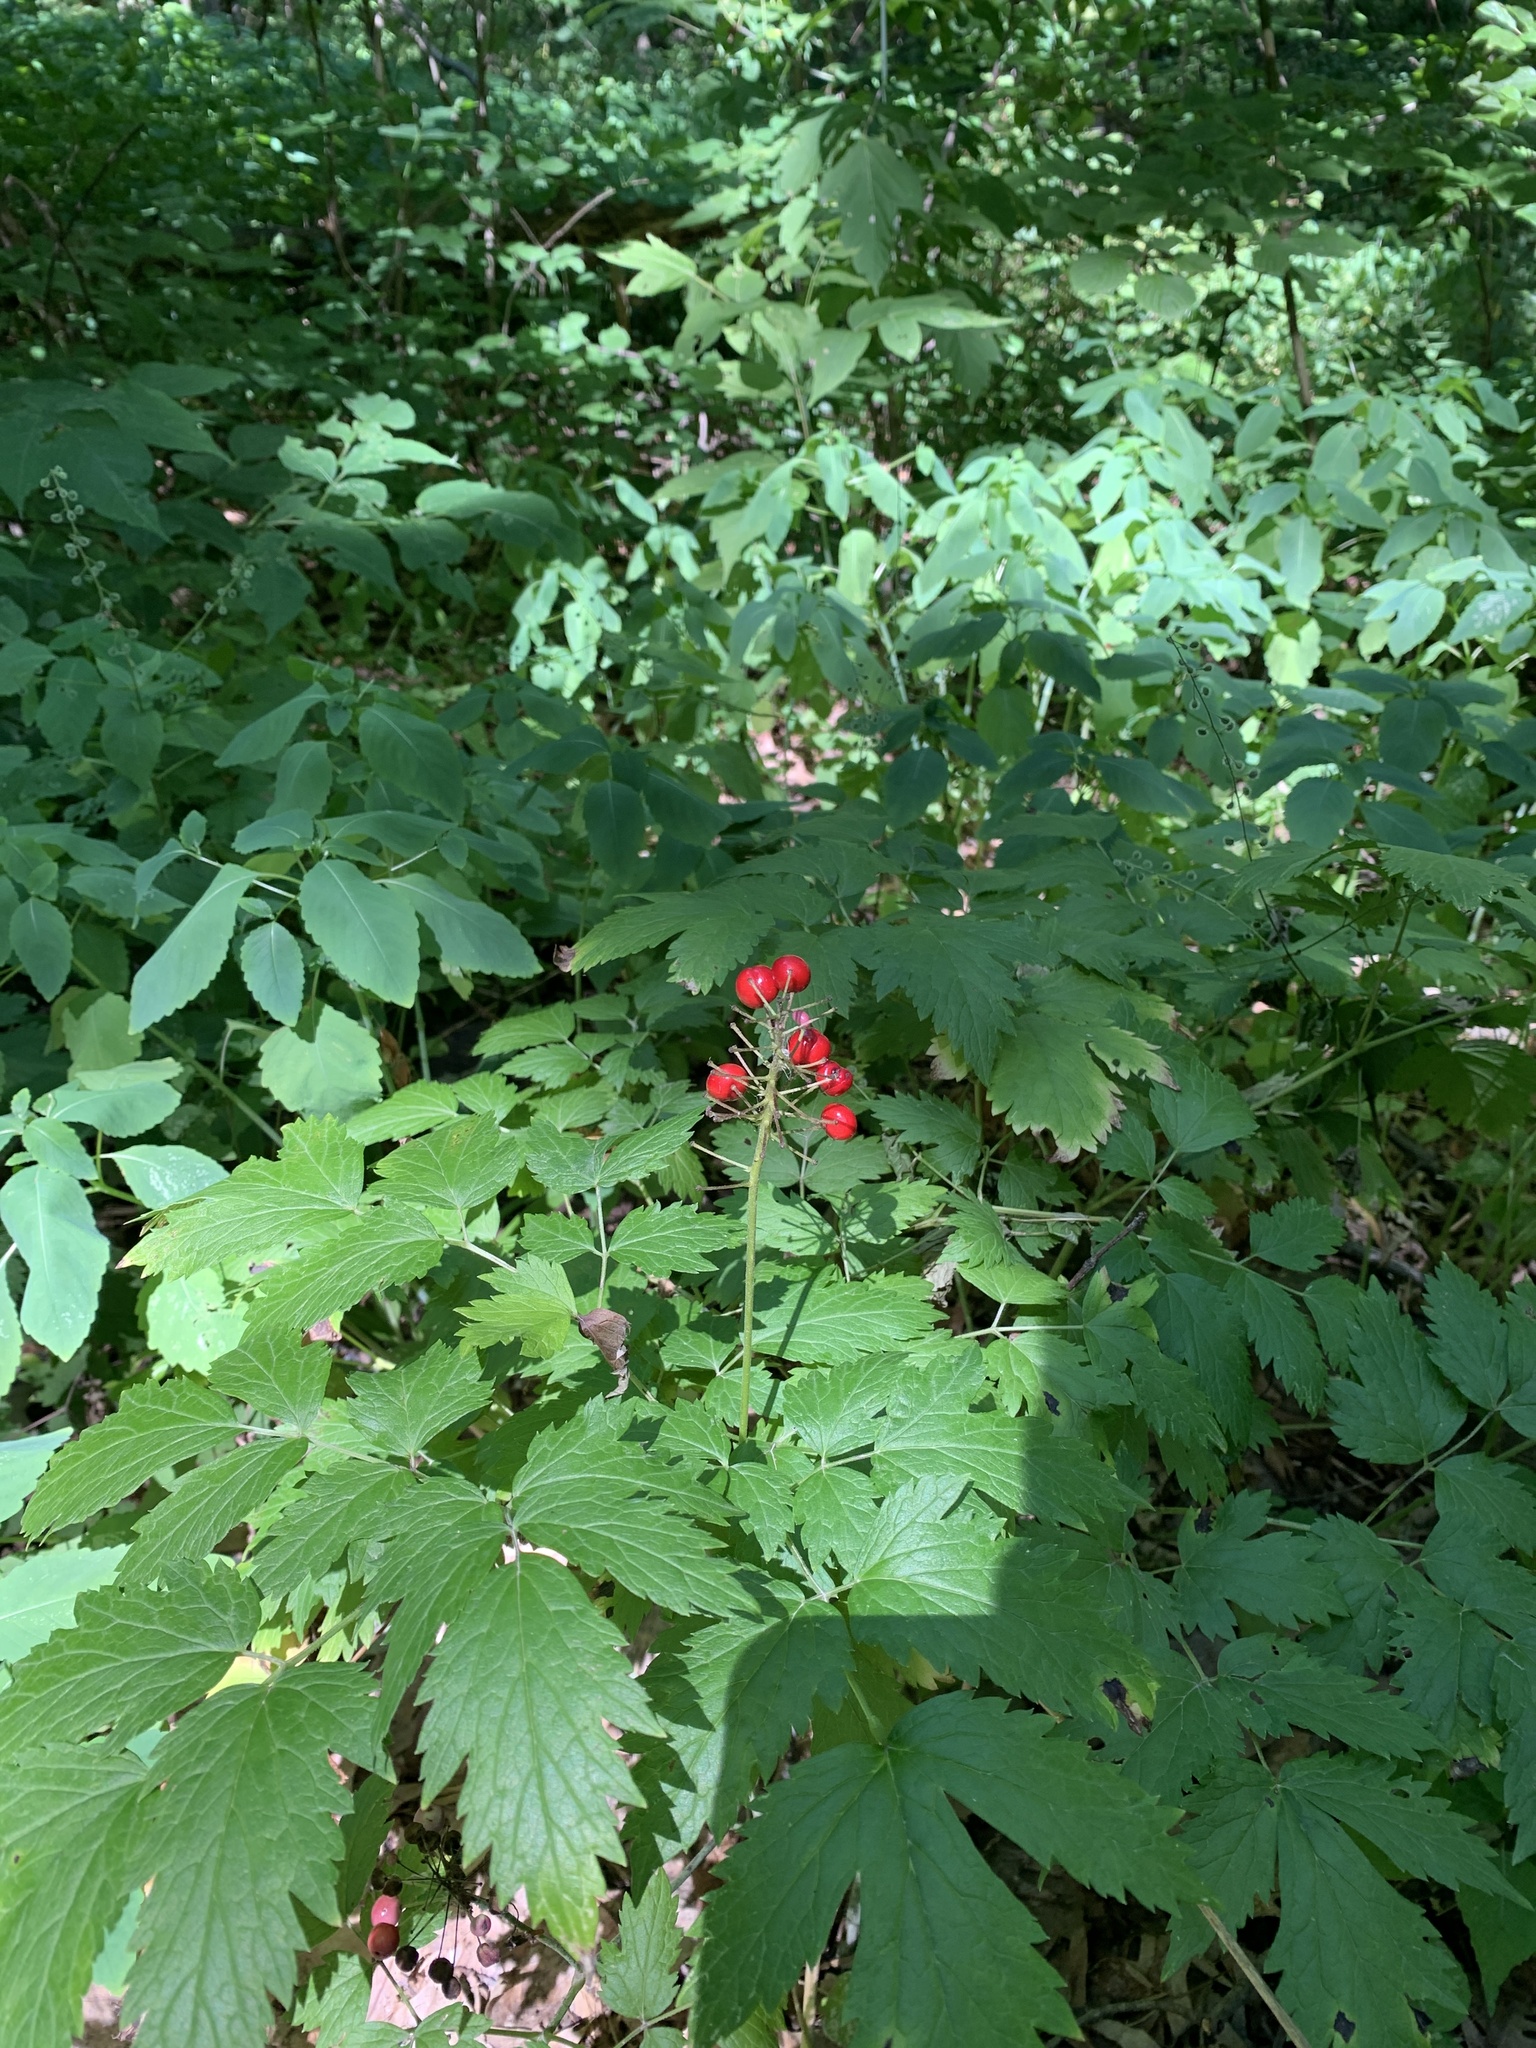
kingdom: Plantae
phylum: Tracheophyta
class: Magnoliopsida
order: Ranunculales
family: Ranunculaceae
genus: Actaea
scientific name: Actaea rubra
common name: Red baneberry
